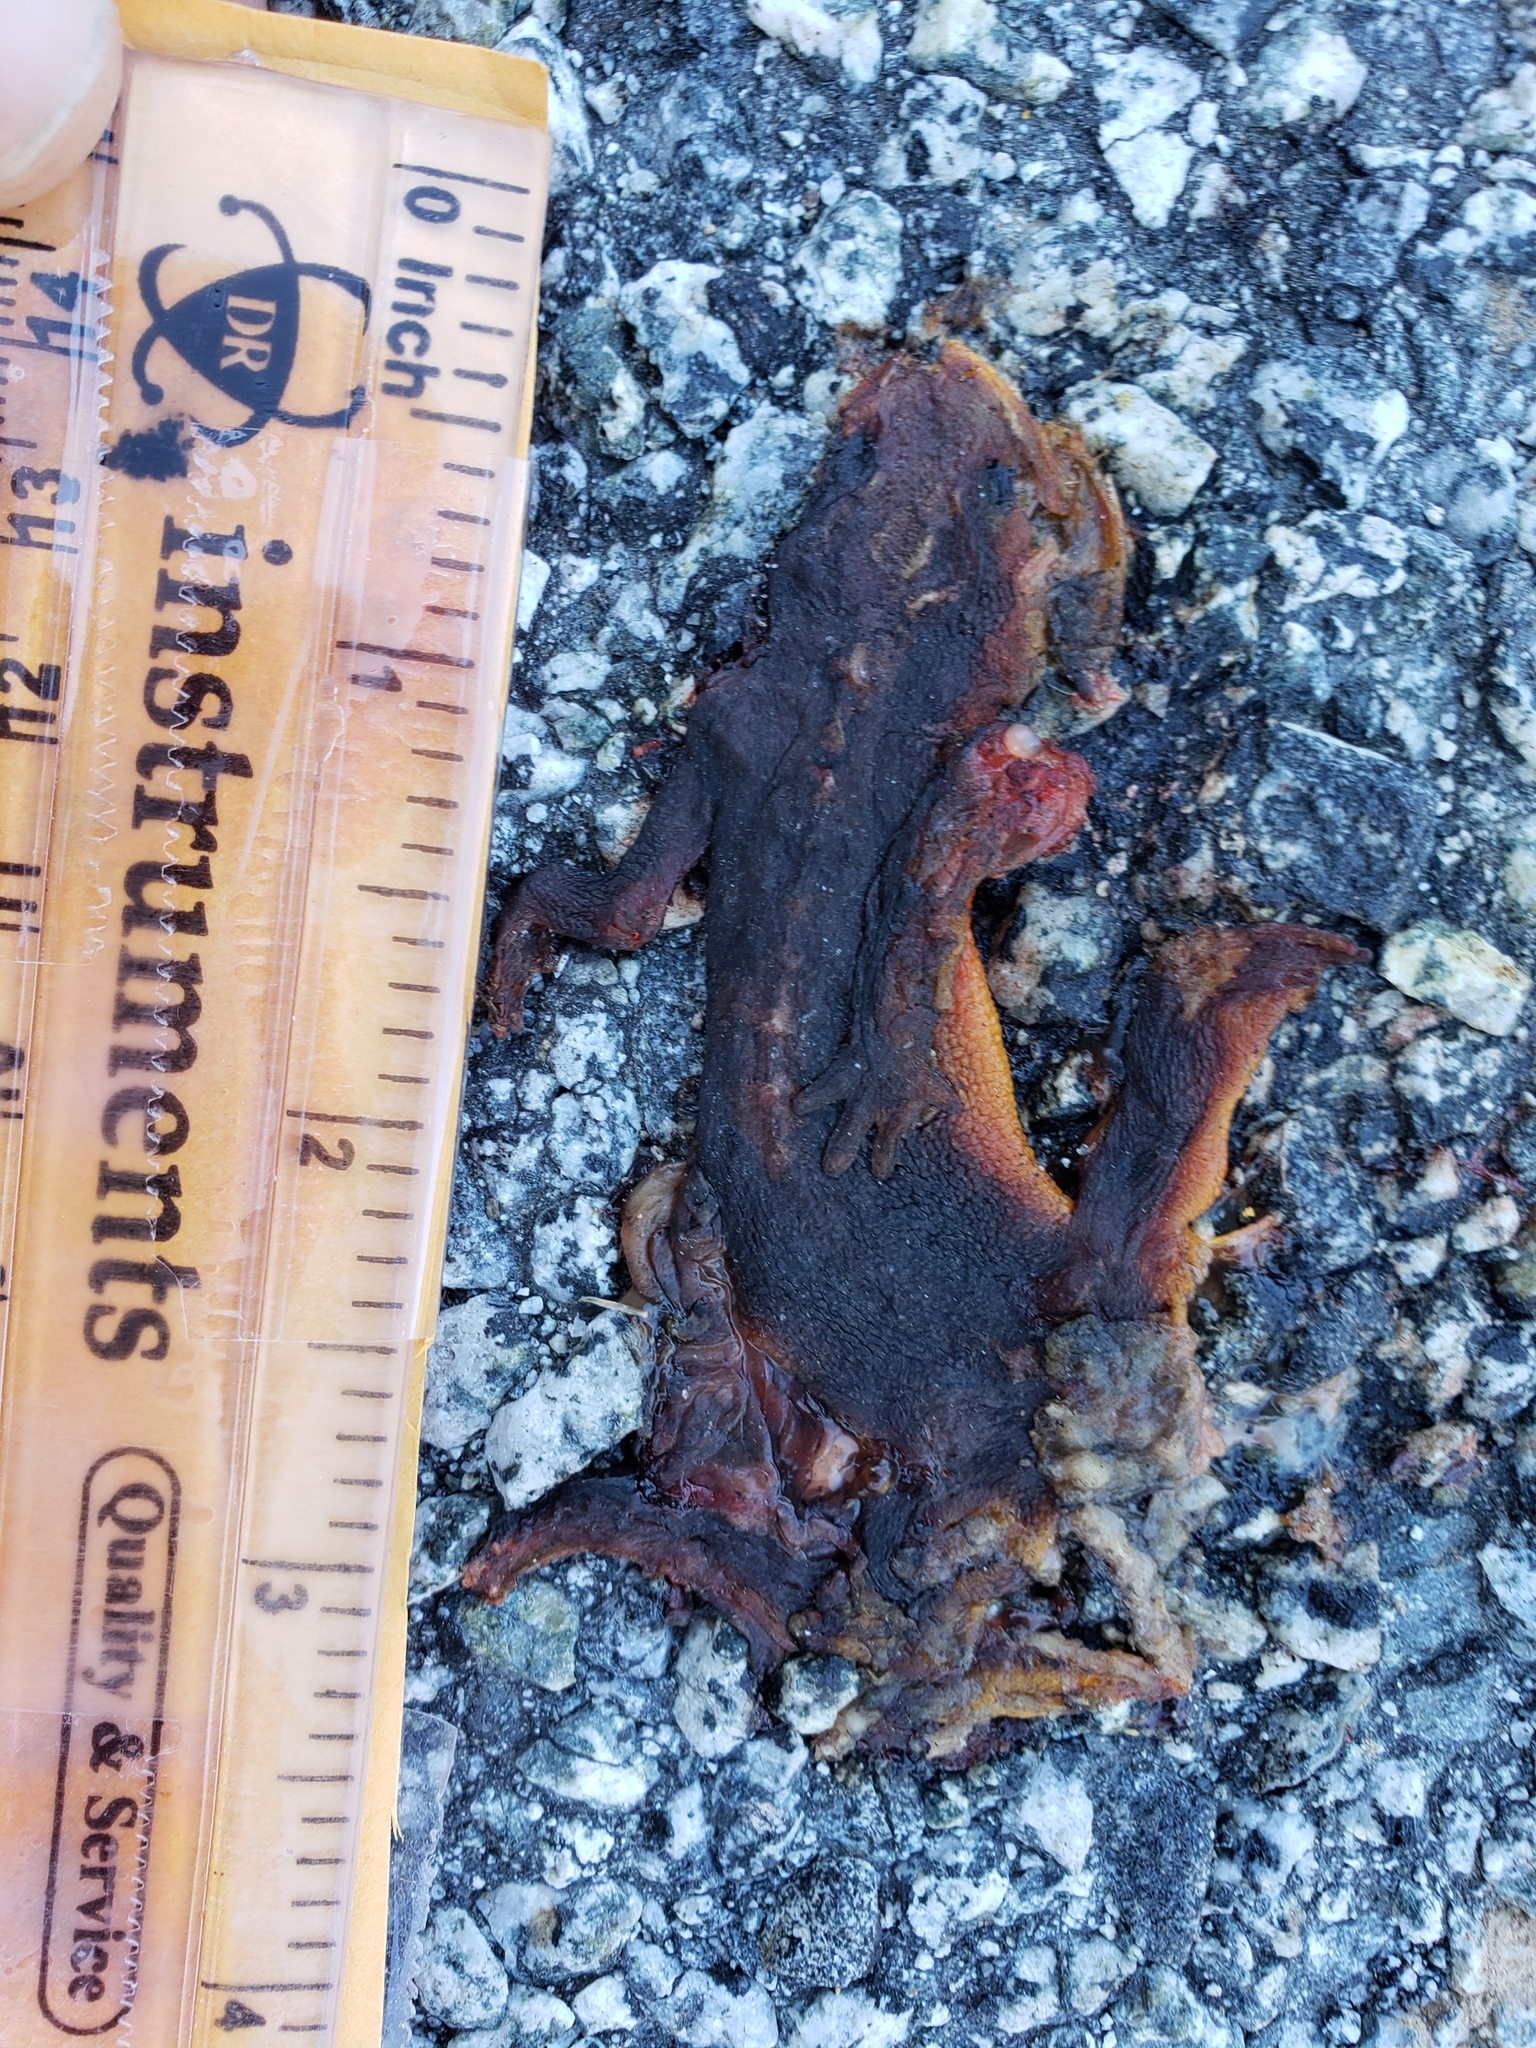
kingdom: Animalia
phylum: Chordata
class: Amphibia
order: Caudata
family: Salamandridae
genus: Taricha
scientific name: Taricha
